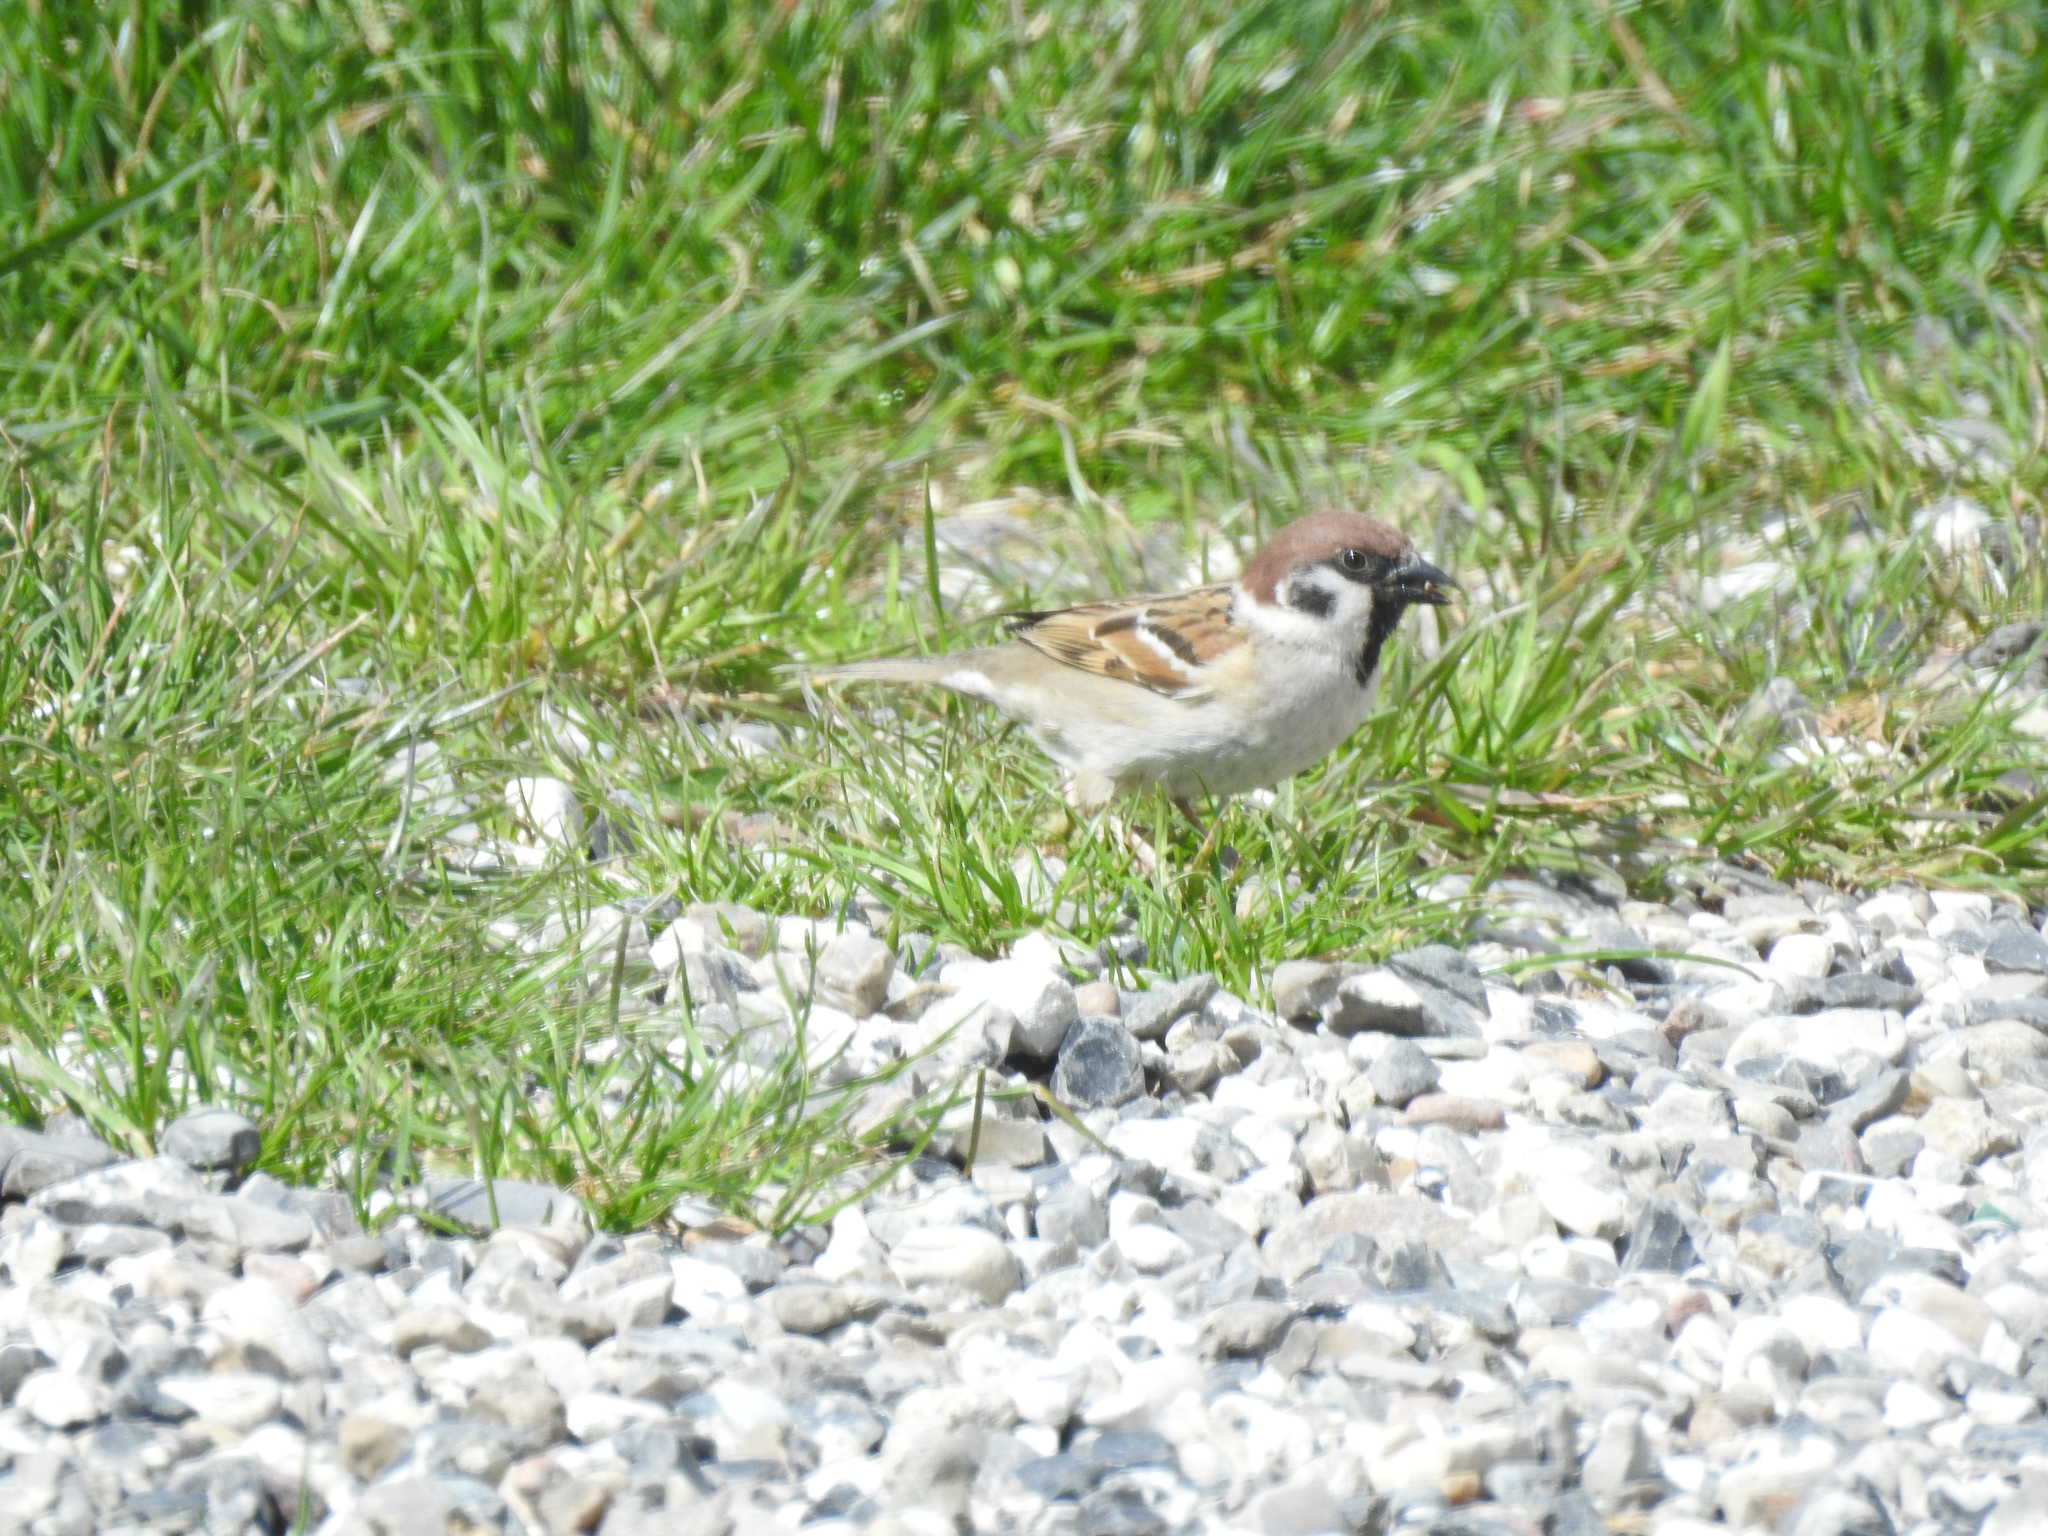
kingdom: Animalia
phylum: Chordata
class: Aves
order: Passeriformes
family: Passeridae
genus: Passer
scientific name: Passer montanus
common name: Eurasian tree sparrow
